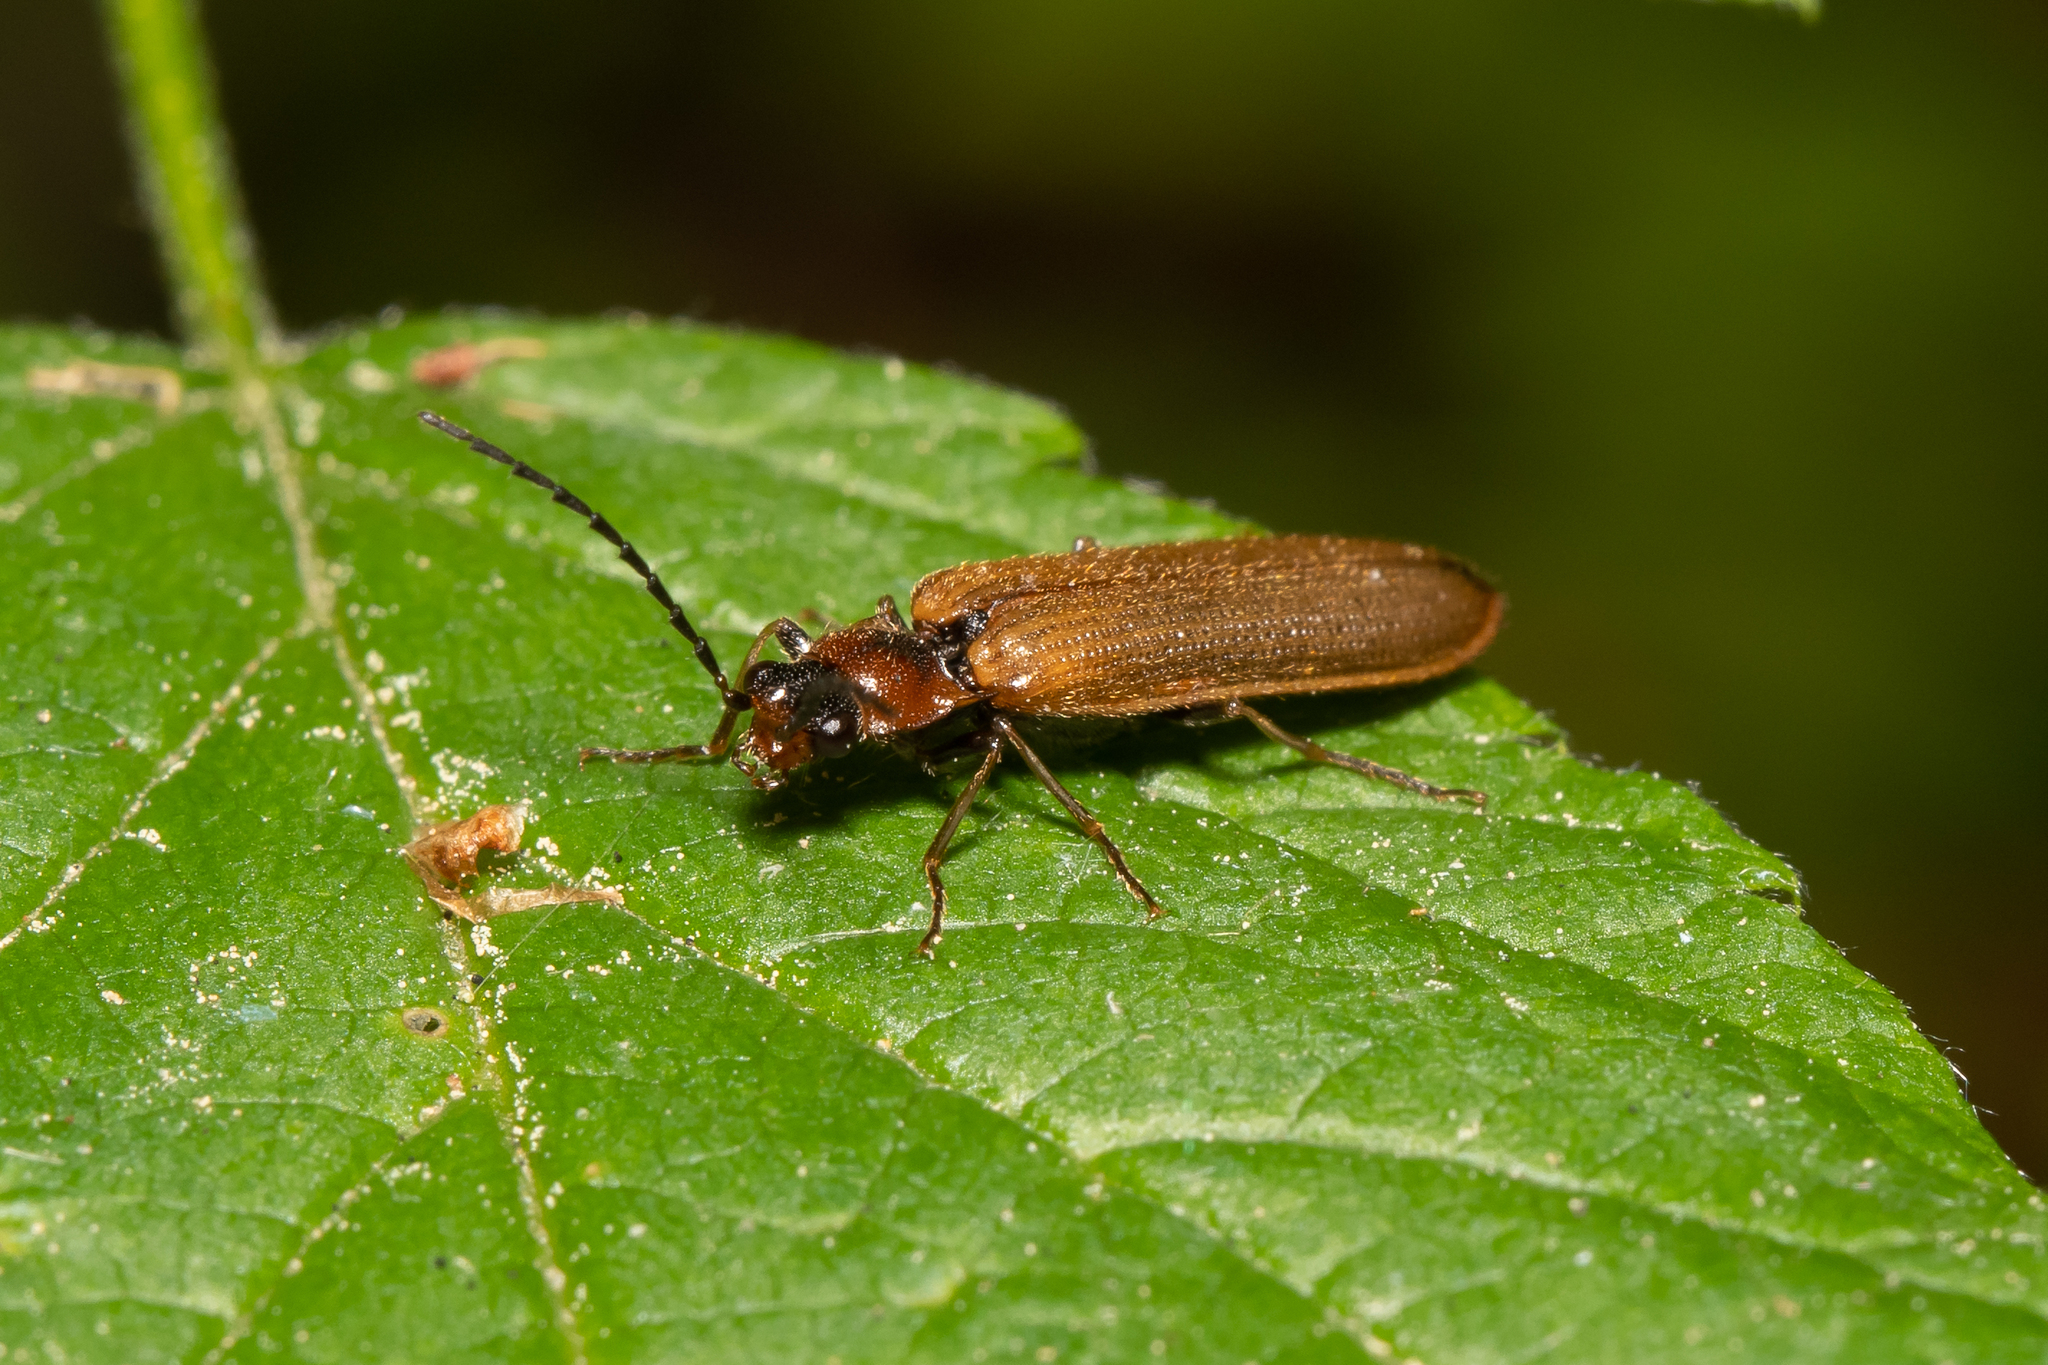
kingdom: Animalia
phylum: Arthropoda
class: Insecta
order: Coleoptera
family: Elateridae
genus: Denticollis
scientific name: Denticollis linearis
